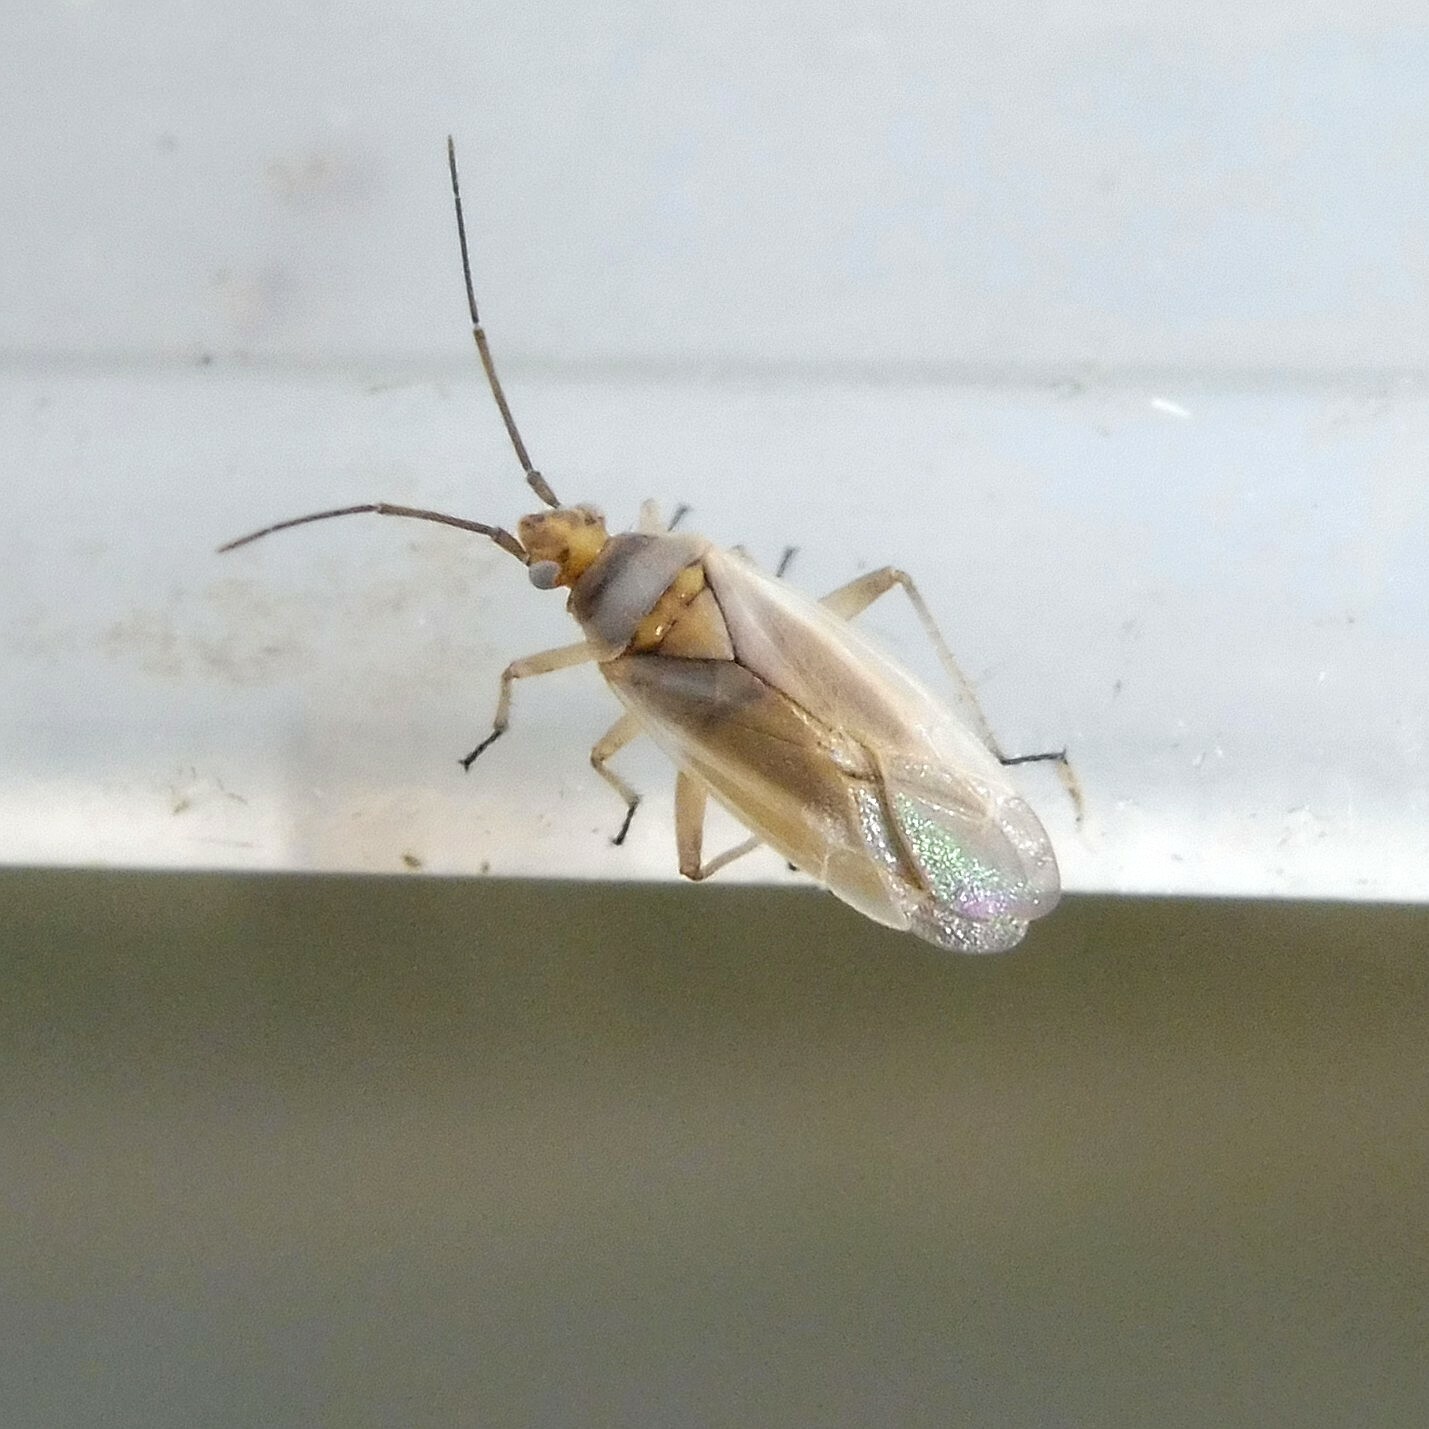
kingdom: Animalia
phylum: Arthropoda
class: Insecta
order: Hemiptera
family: Miridae
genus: Lopus
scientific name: Lopus decolor
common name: Plant bug
